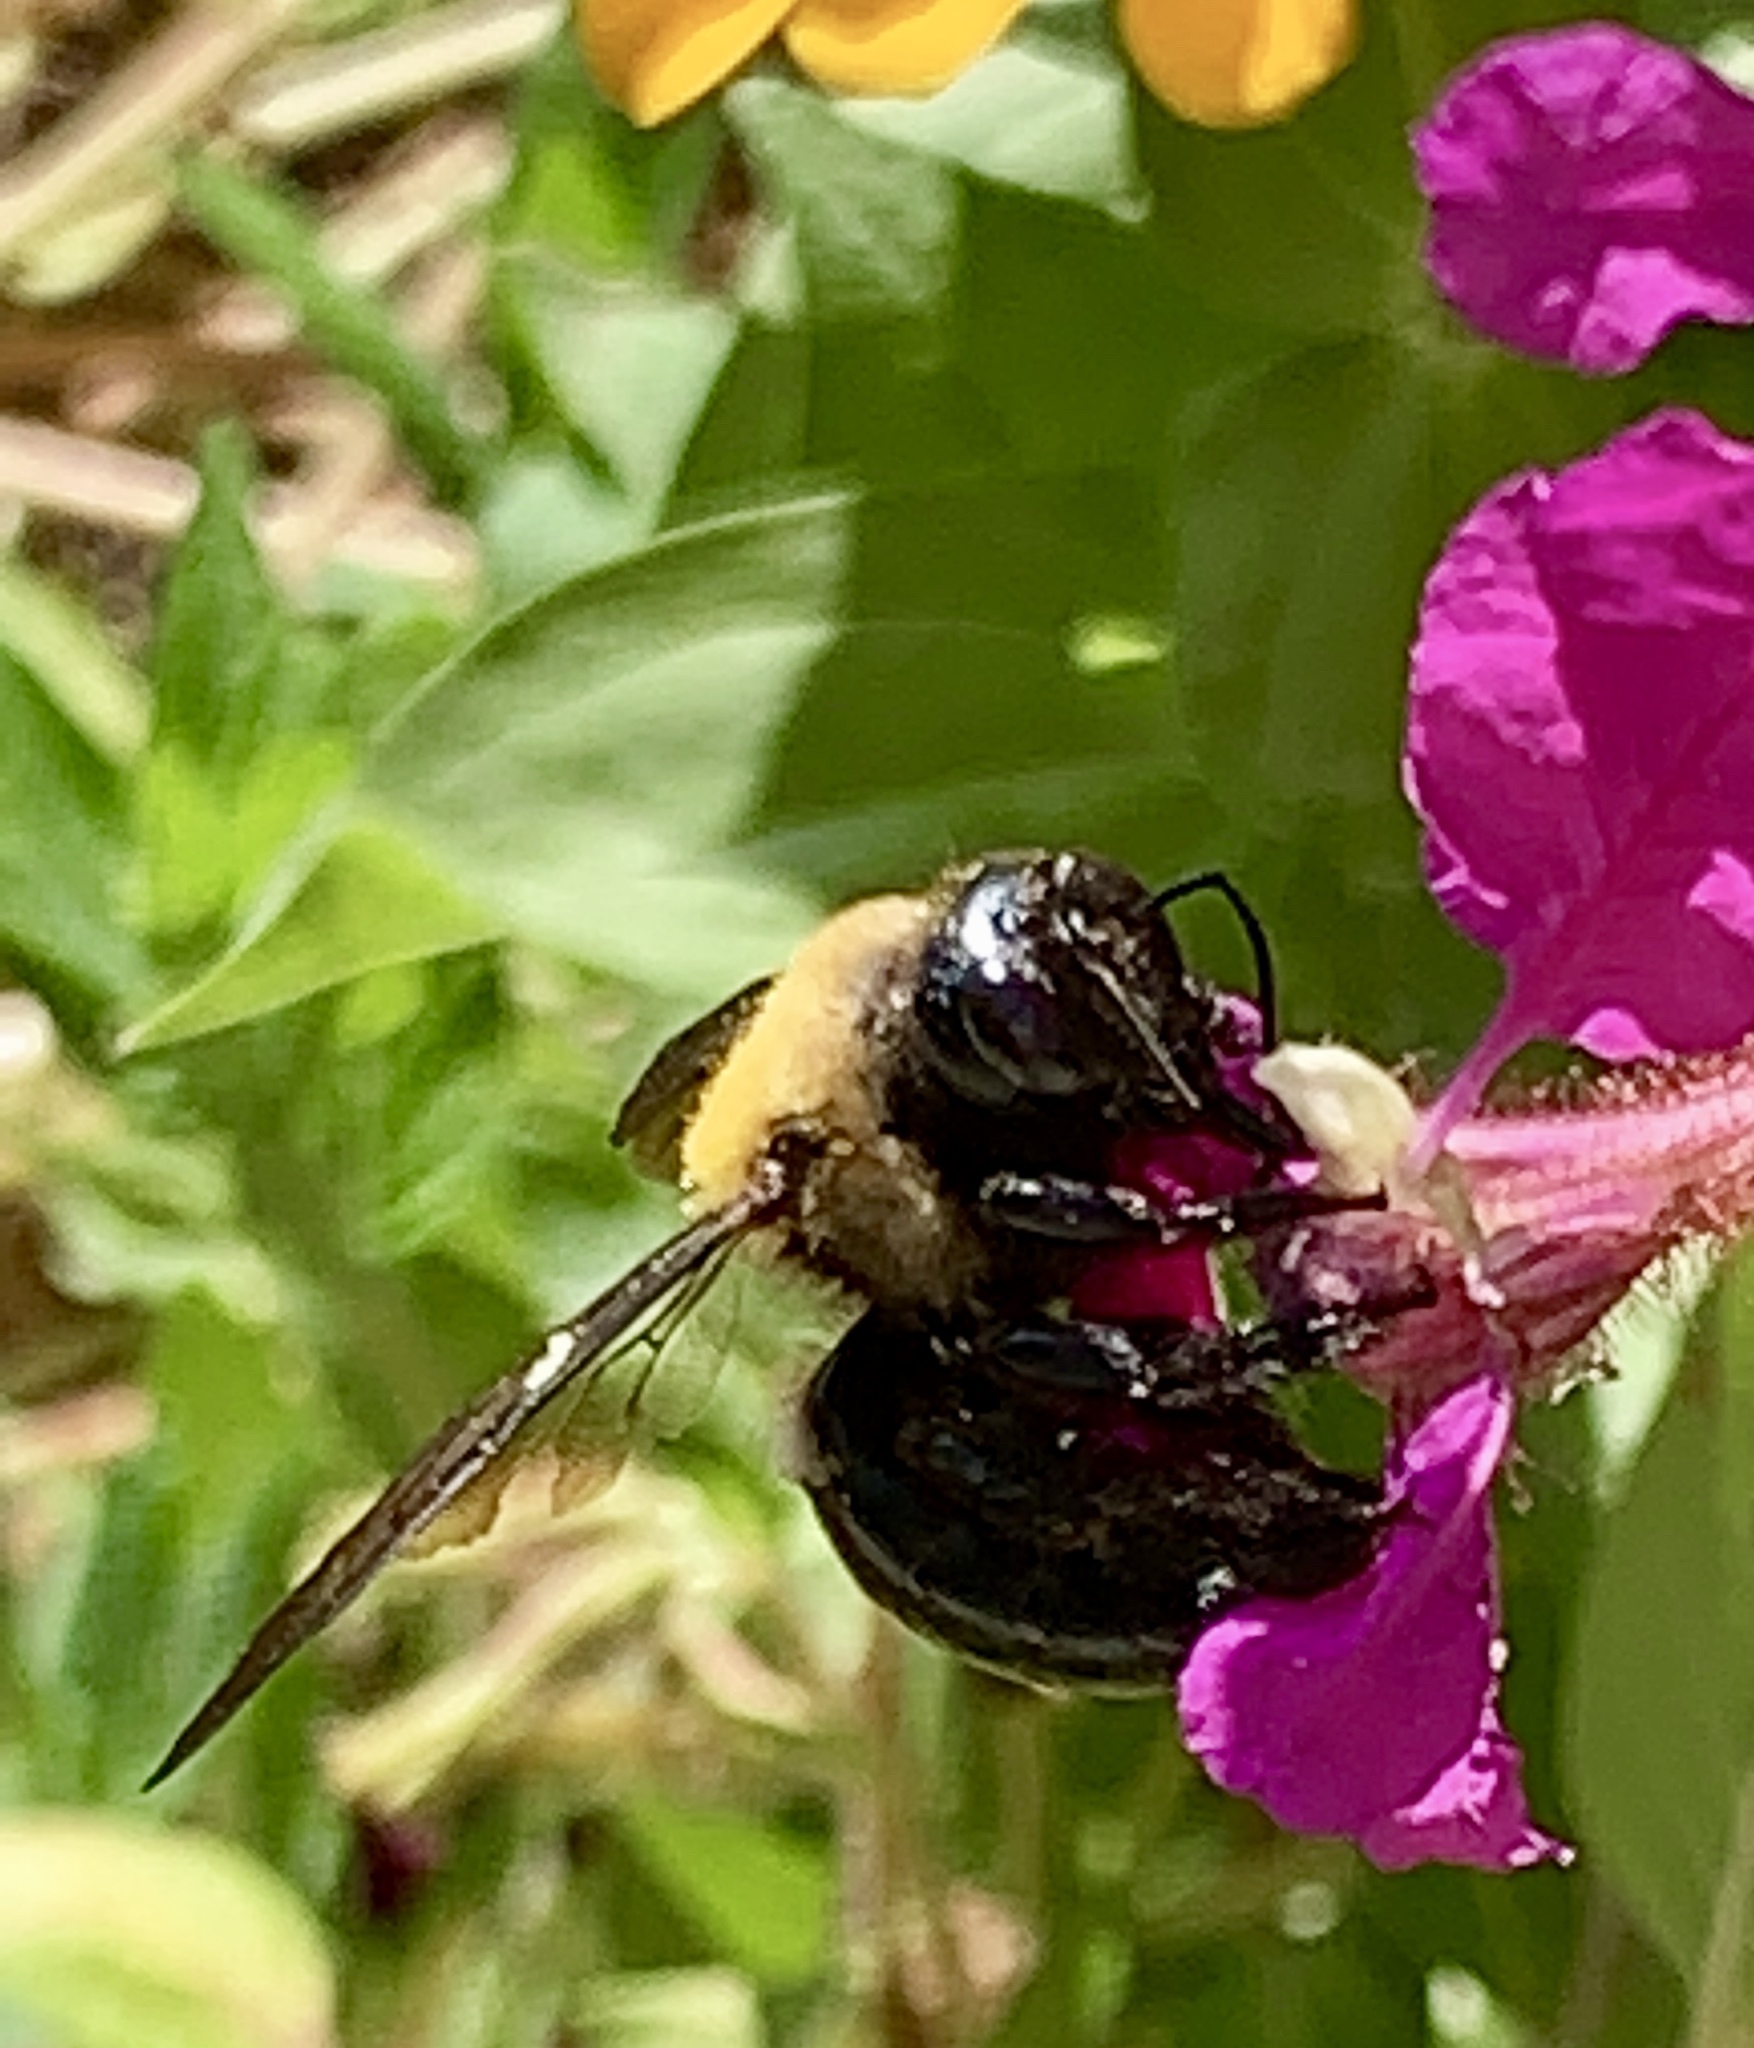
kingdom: Animalia
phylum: Arthropoda
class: Insecta
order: Hymenoptera
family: Apidae
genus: Xylocopa
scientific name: Xylocopa virginica
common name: Carpenter bee
